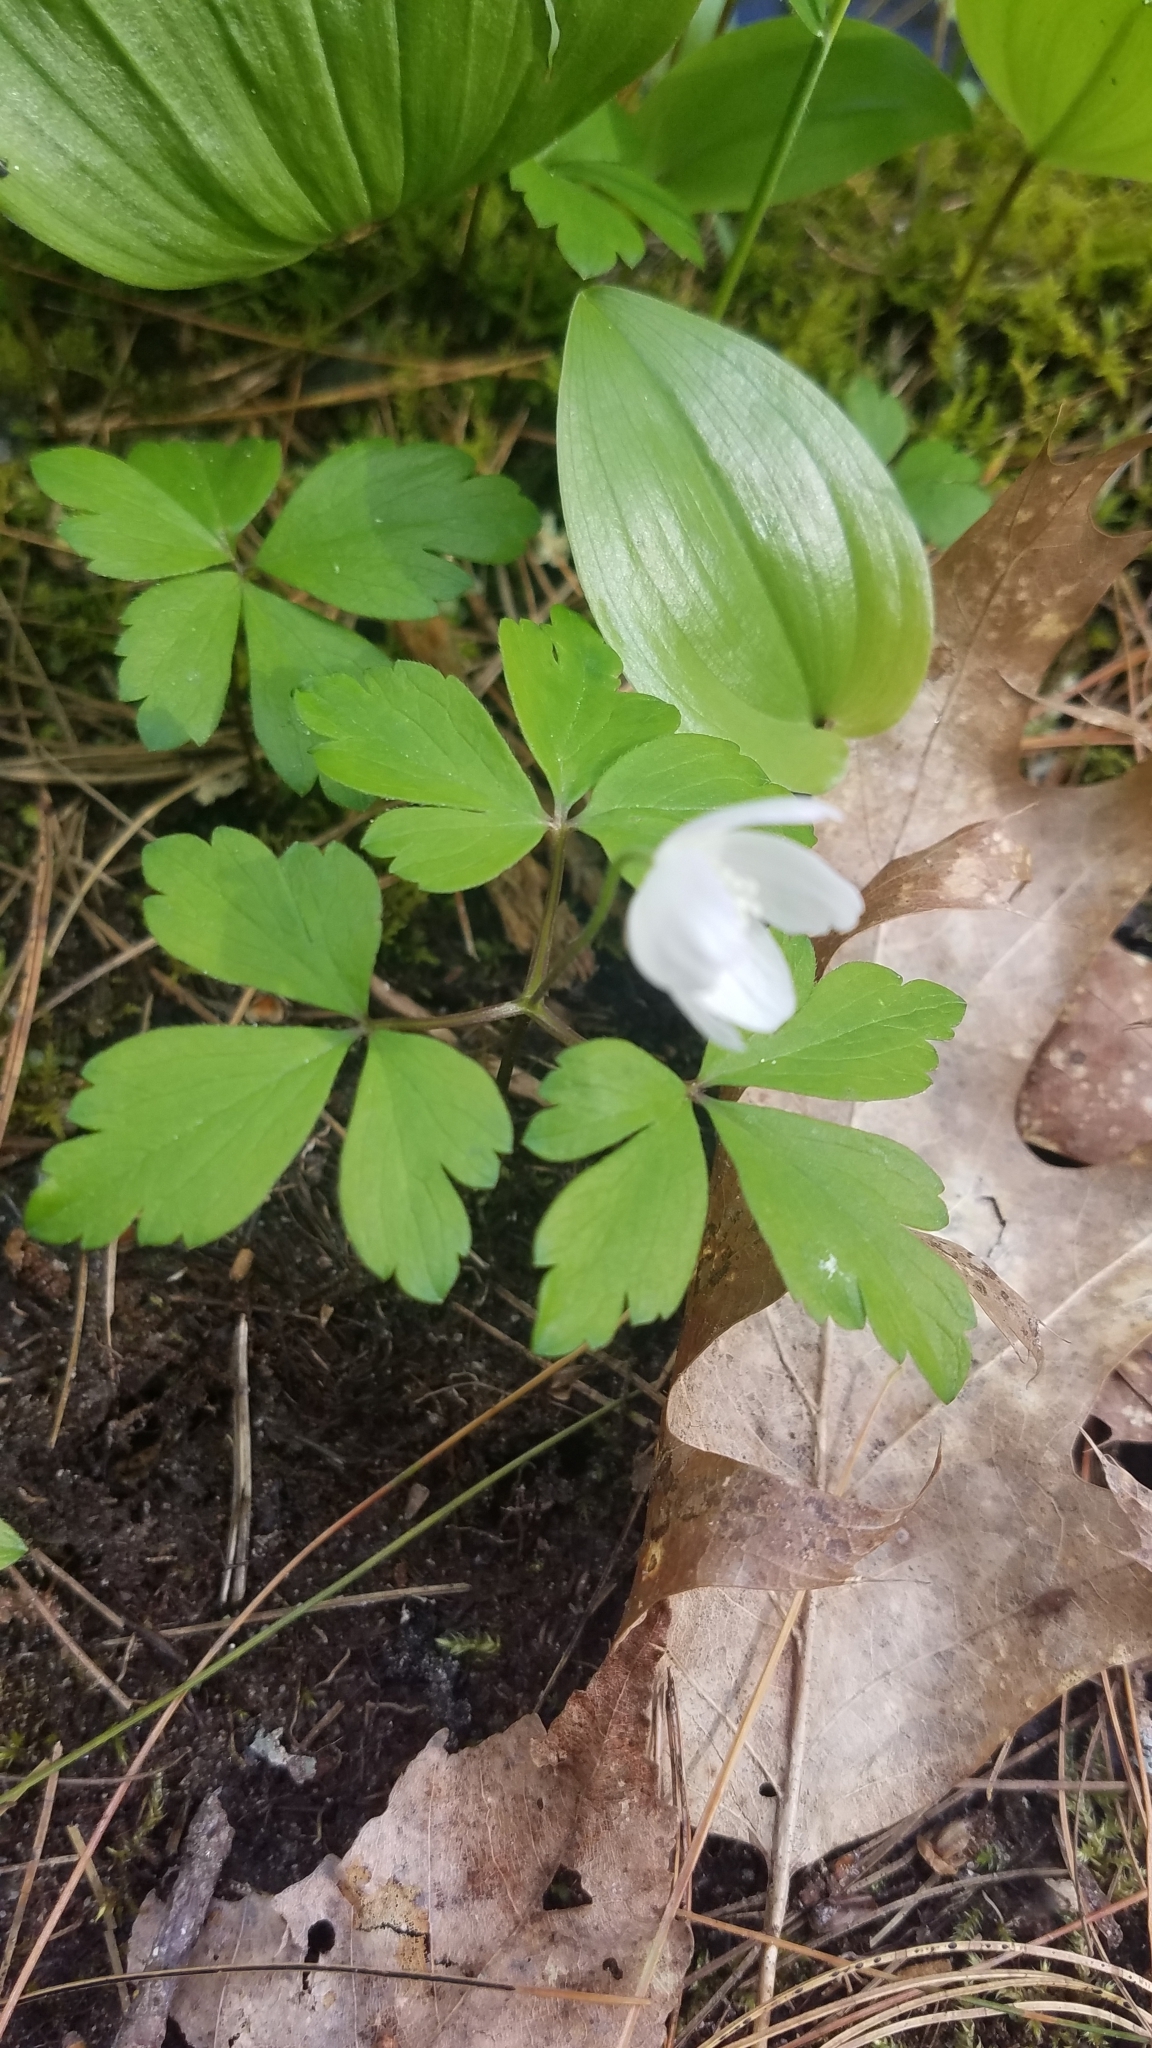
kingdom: Plantae
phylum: Tracheophyta
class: Magnoliopsida
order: Ranunculales
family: Ranunculaceae
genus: Anemone
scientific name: Anemone quinquefolia
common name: Wood anemone
